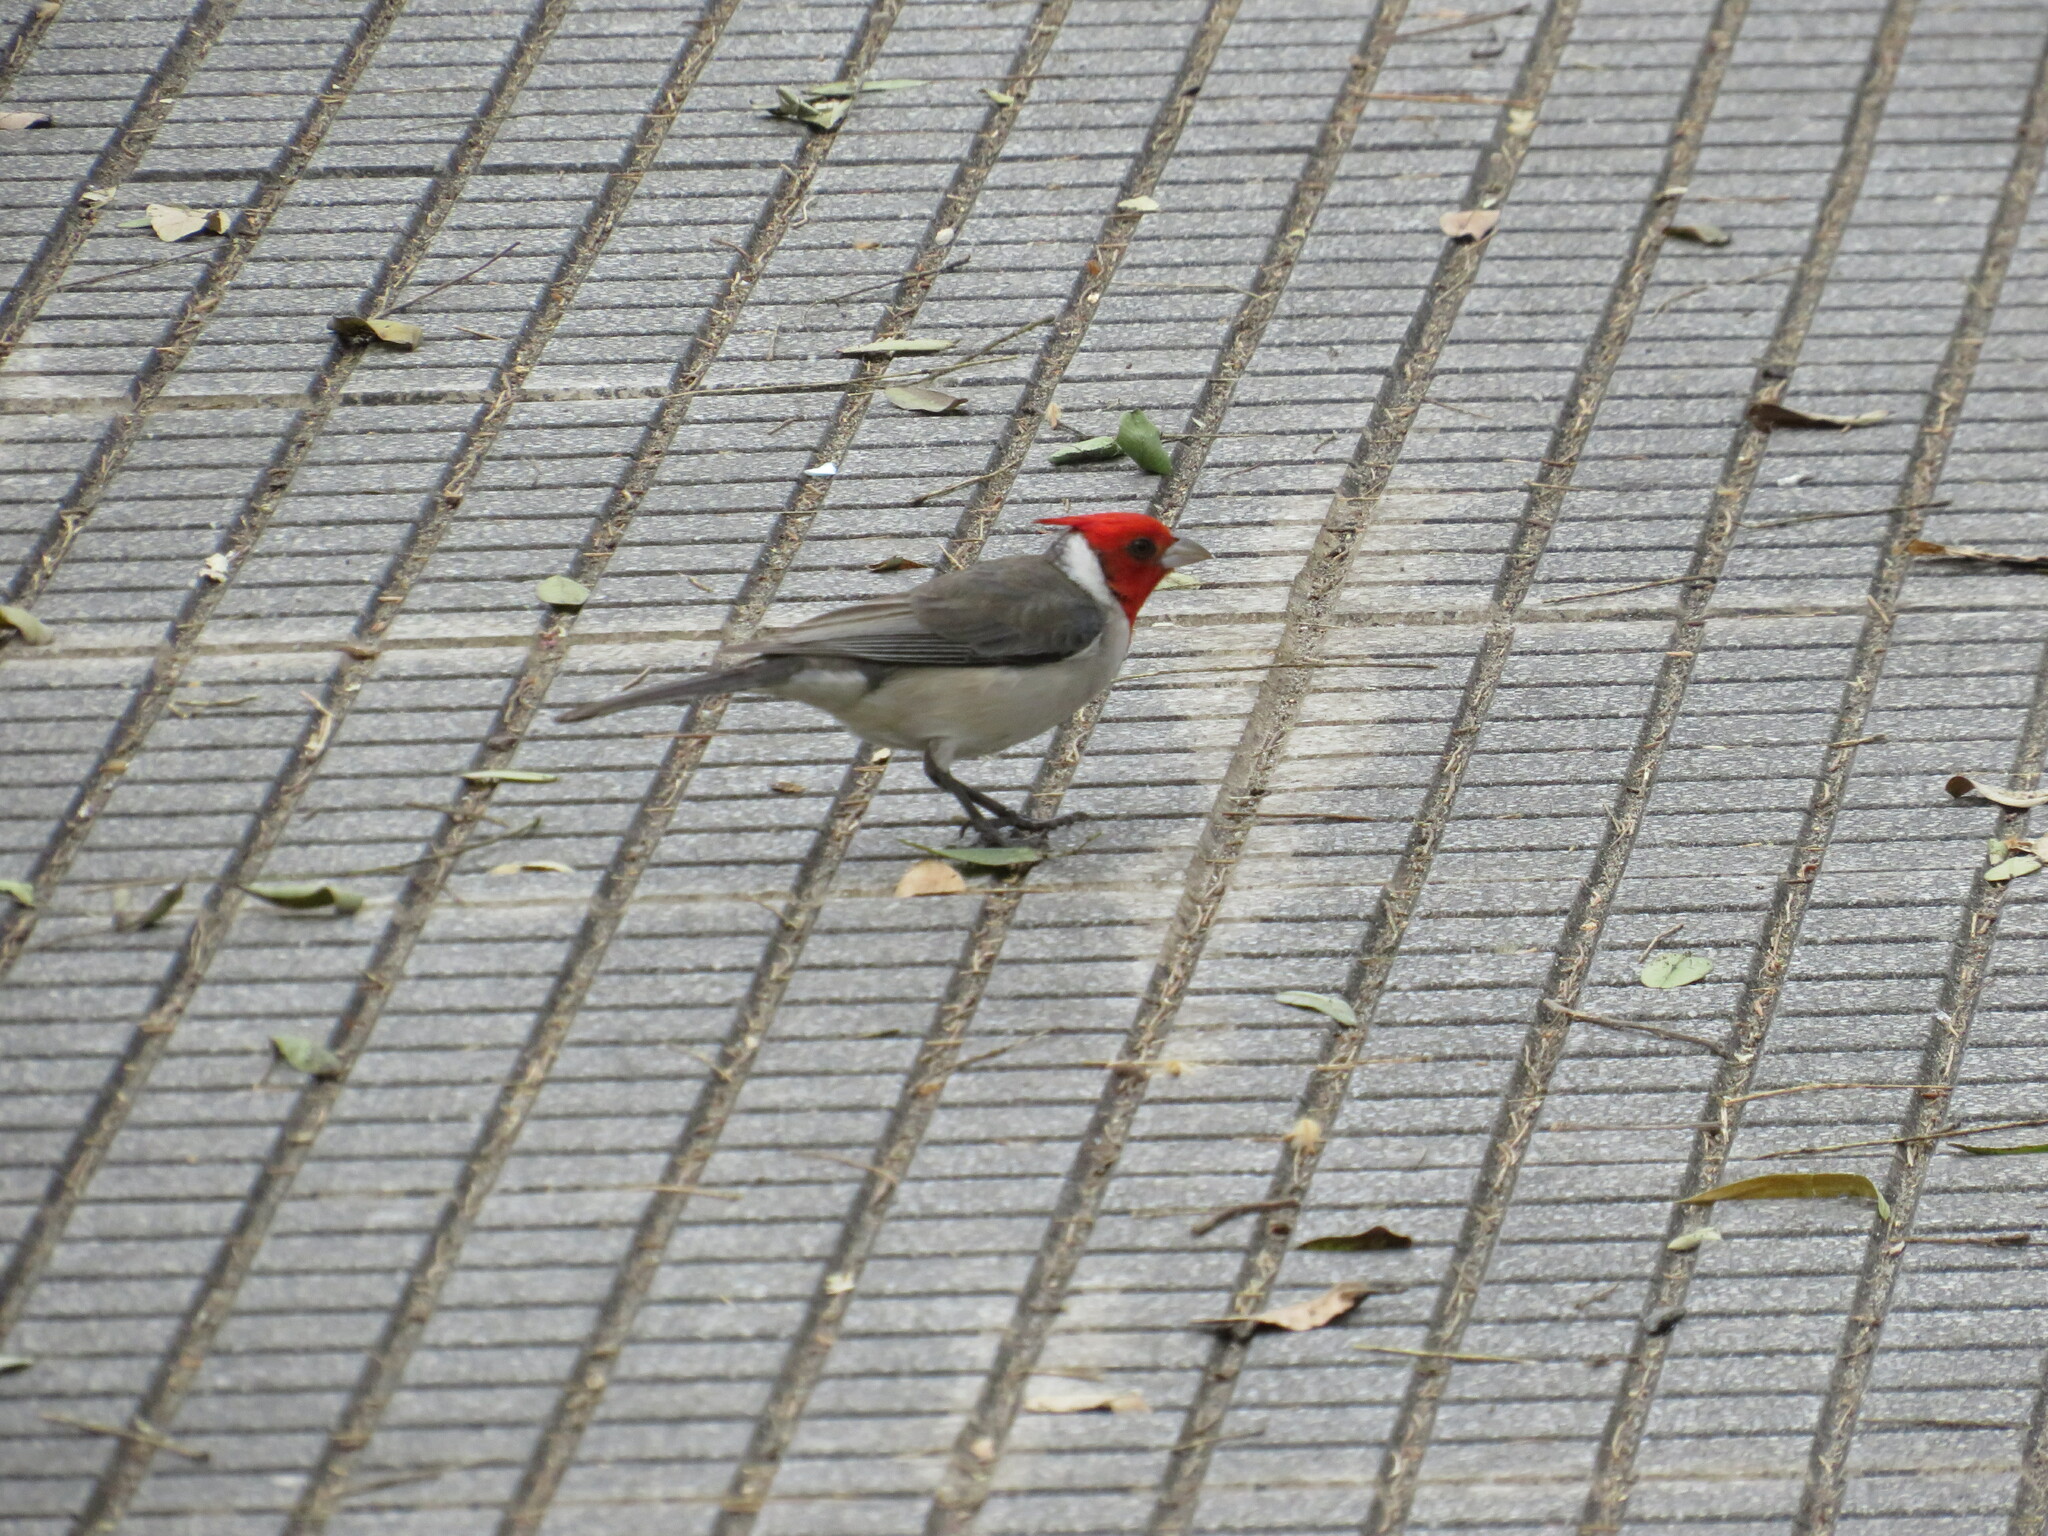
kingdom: Animalia
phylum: Chordata
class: Aves
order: Passeriformes
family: Thraupidae
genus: Paroaria
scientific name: Paroaria coronata
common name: Red-crested cardinal
